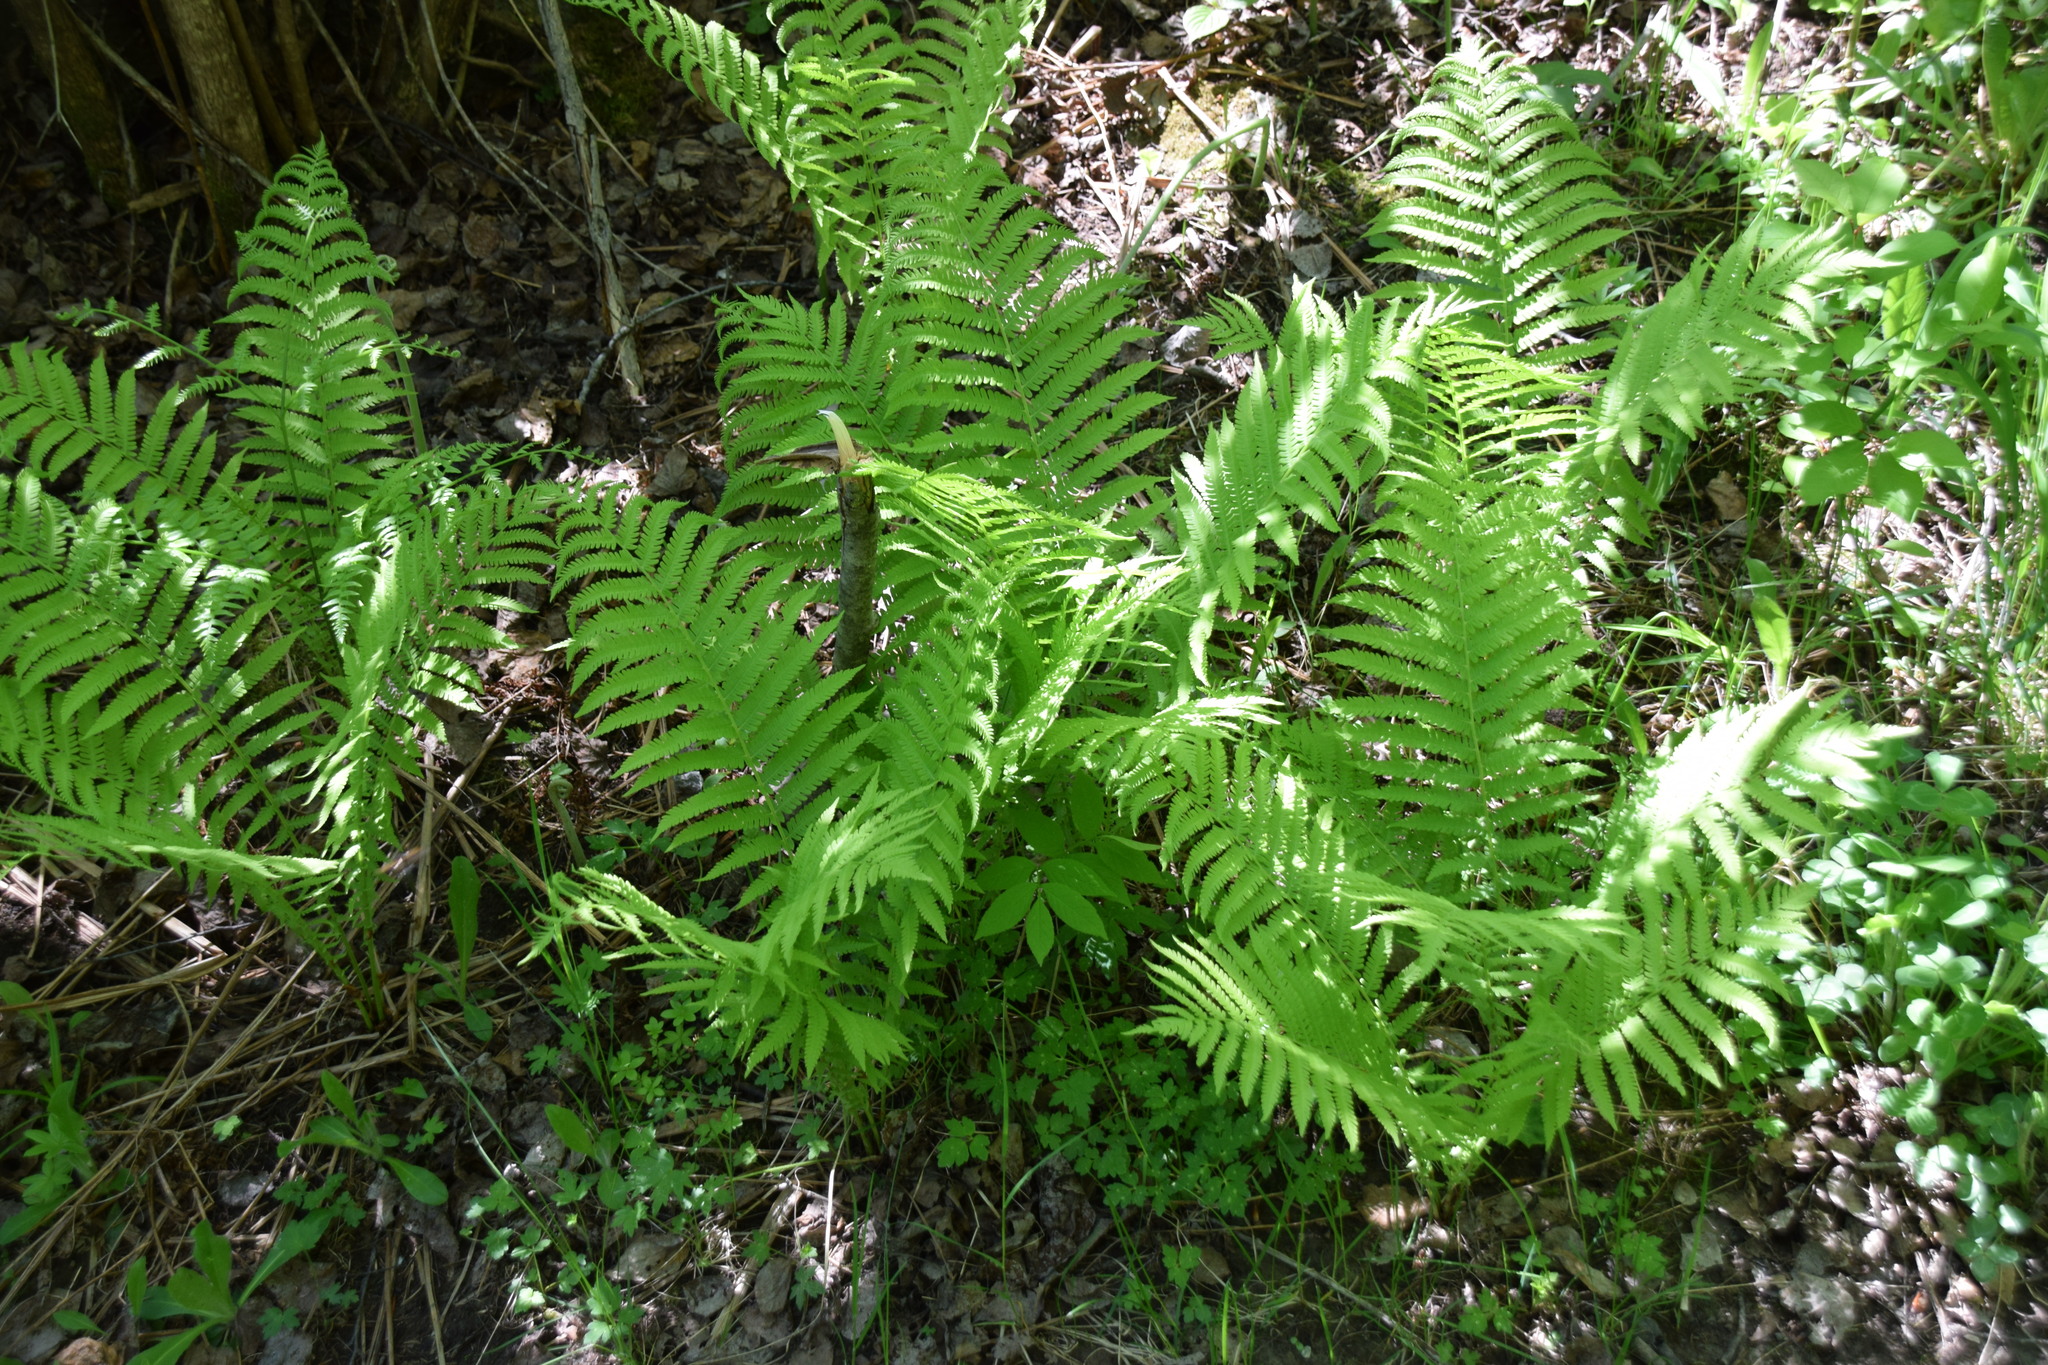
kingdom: Plantae
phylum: Tracheophyta
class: Polypodiopsida
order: Polypodiales
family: Onocleaceae
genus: Matteuccia
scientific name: Matteuccia struthiopteris
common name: Ostrich fern
